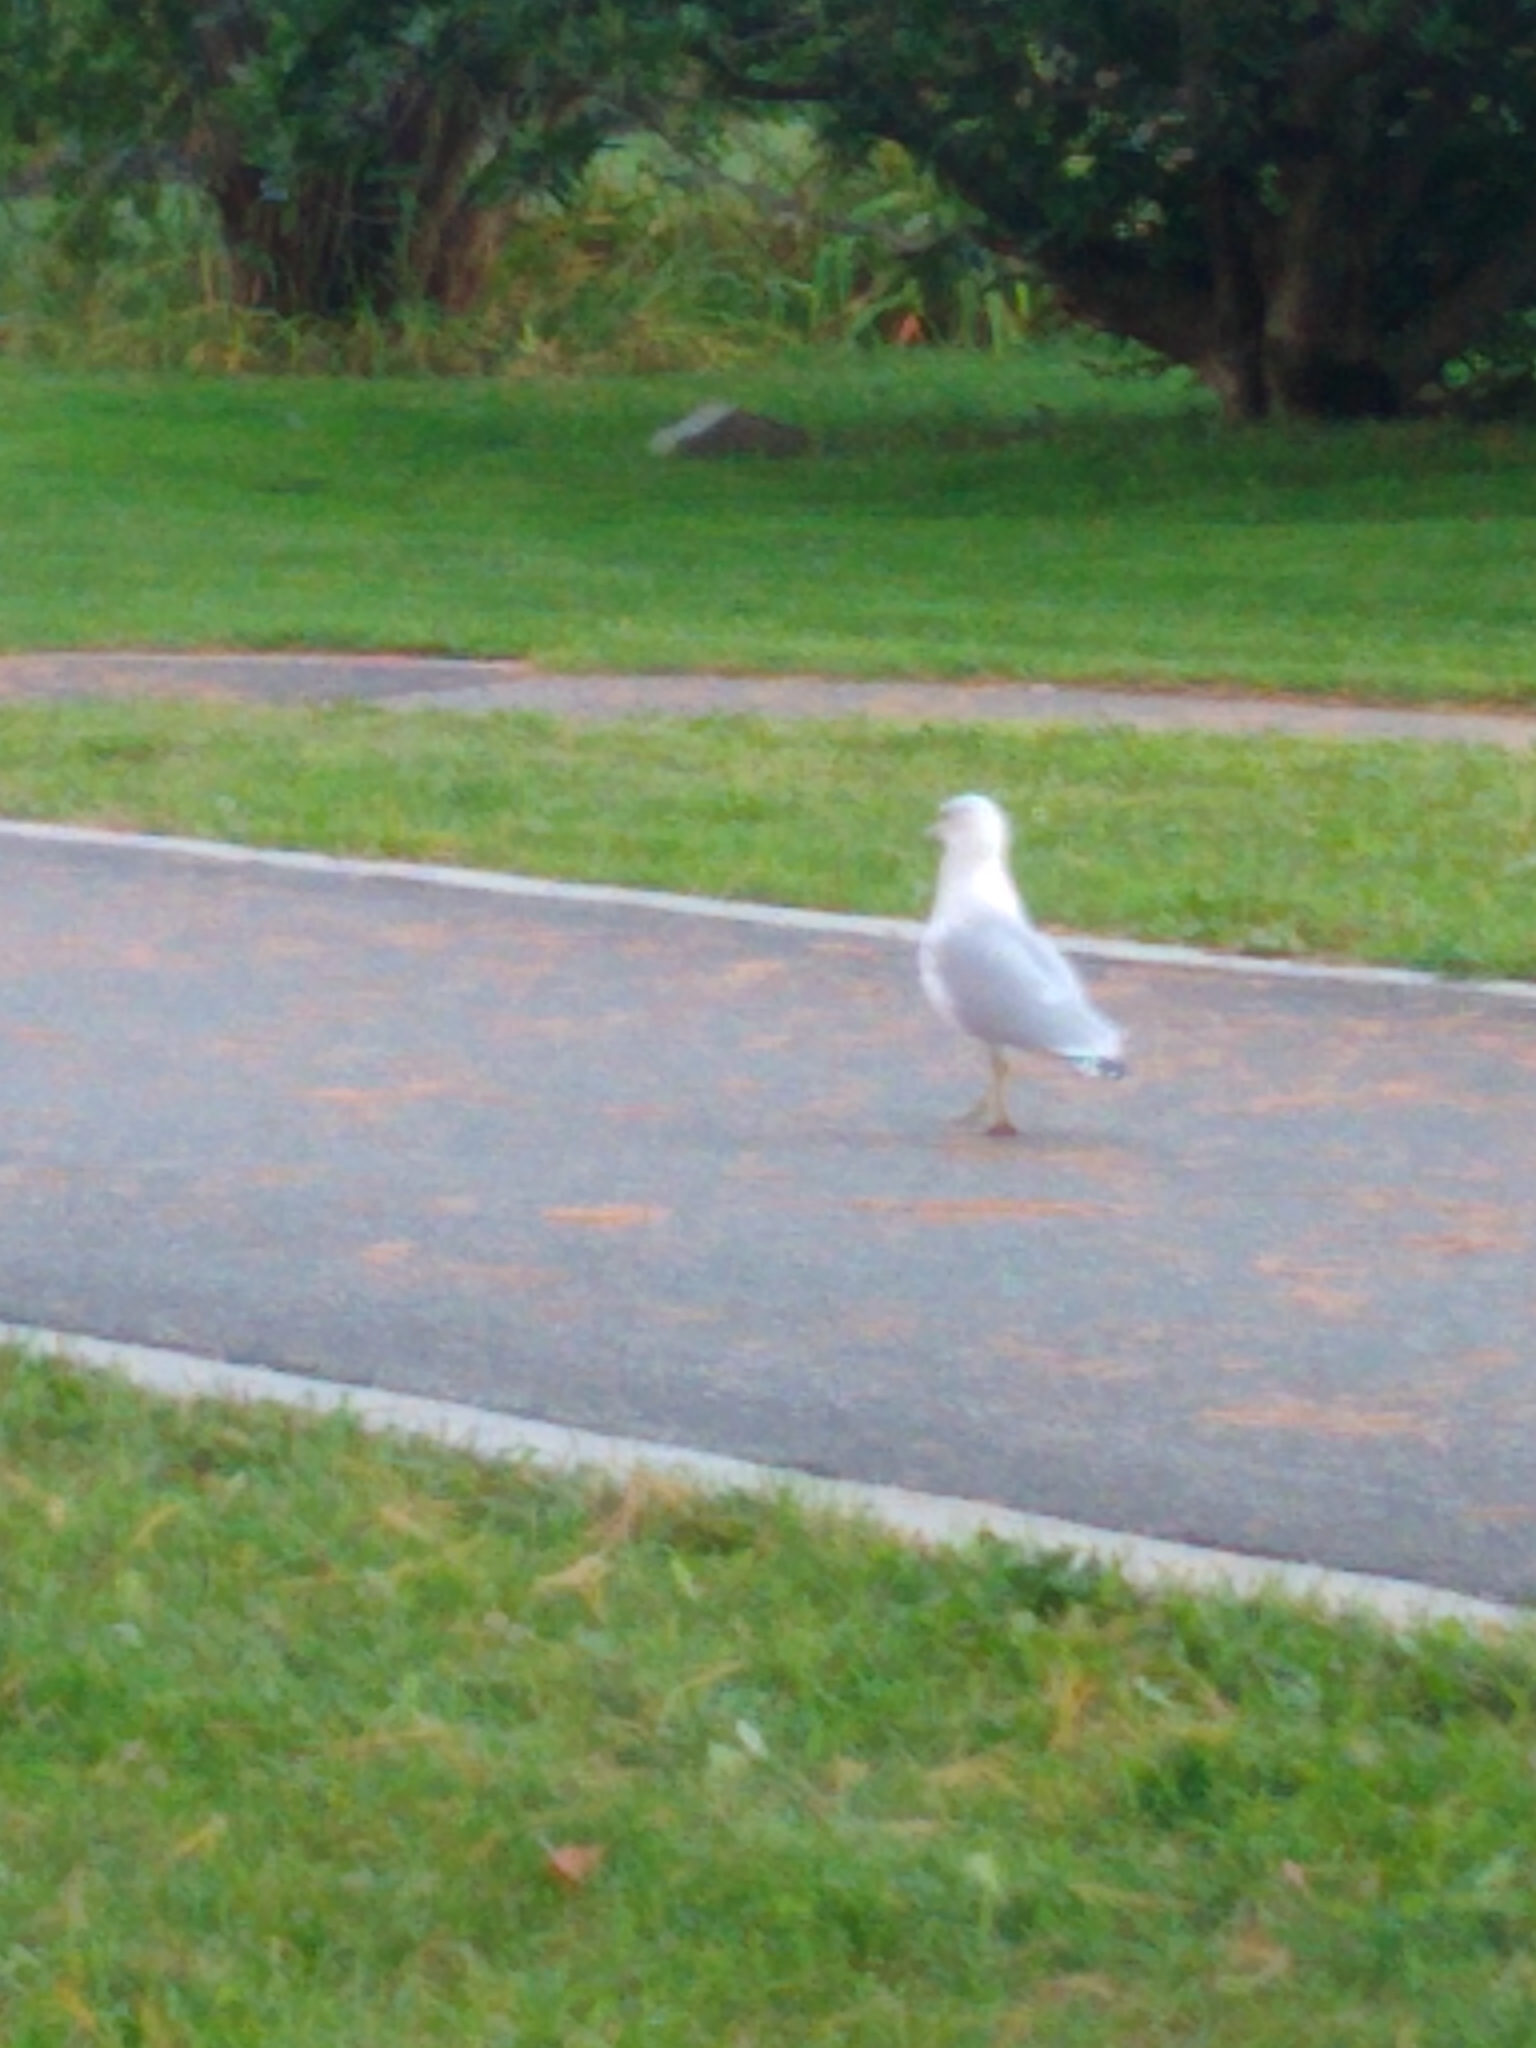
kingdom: Animalia
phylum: Chordata
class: Aves
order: Charadriiformes
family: Laridae
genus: Larus
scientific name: Larus delawarensis
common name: Ring-billed gull
